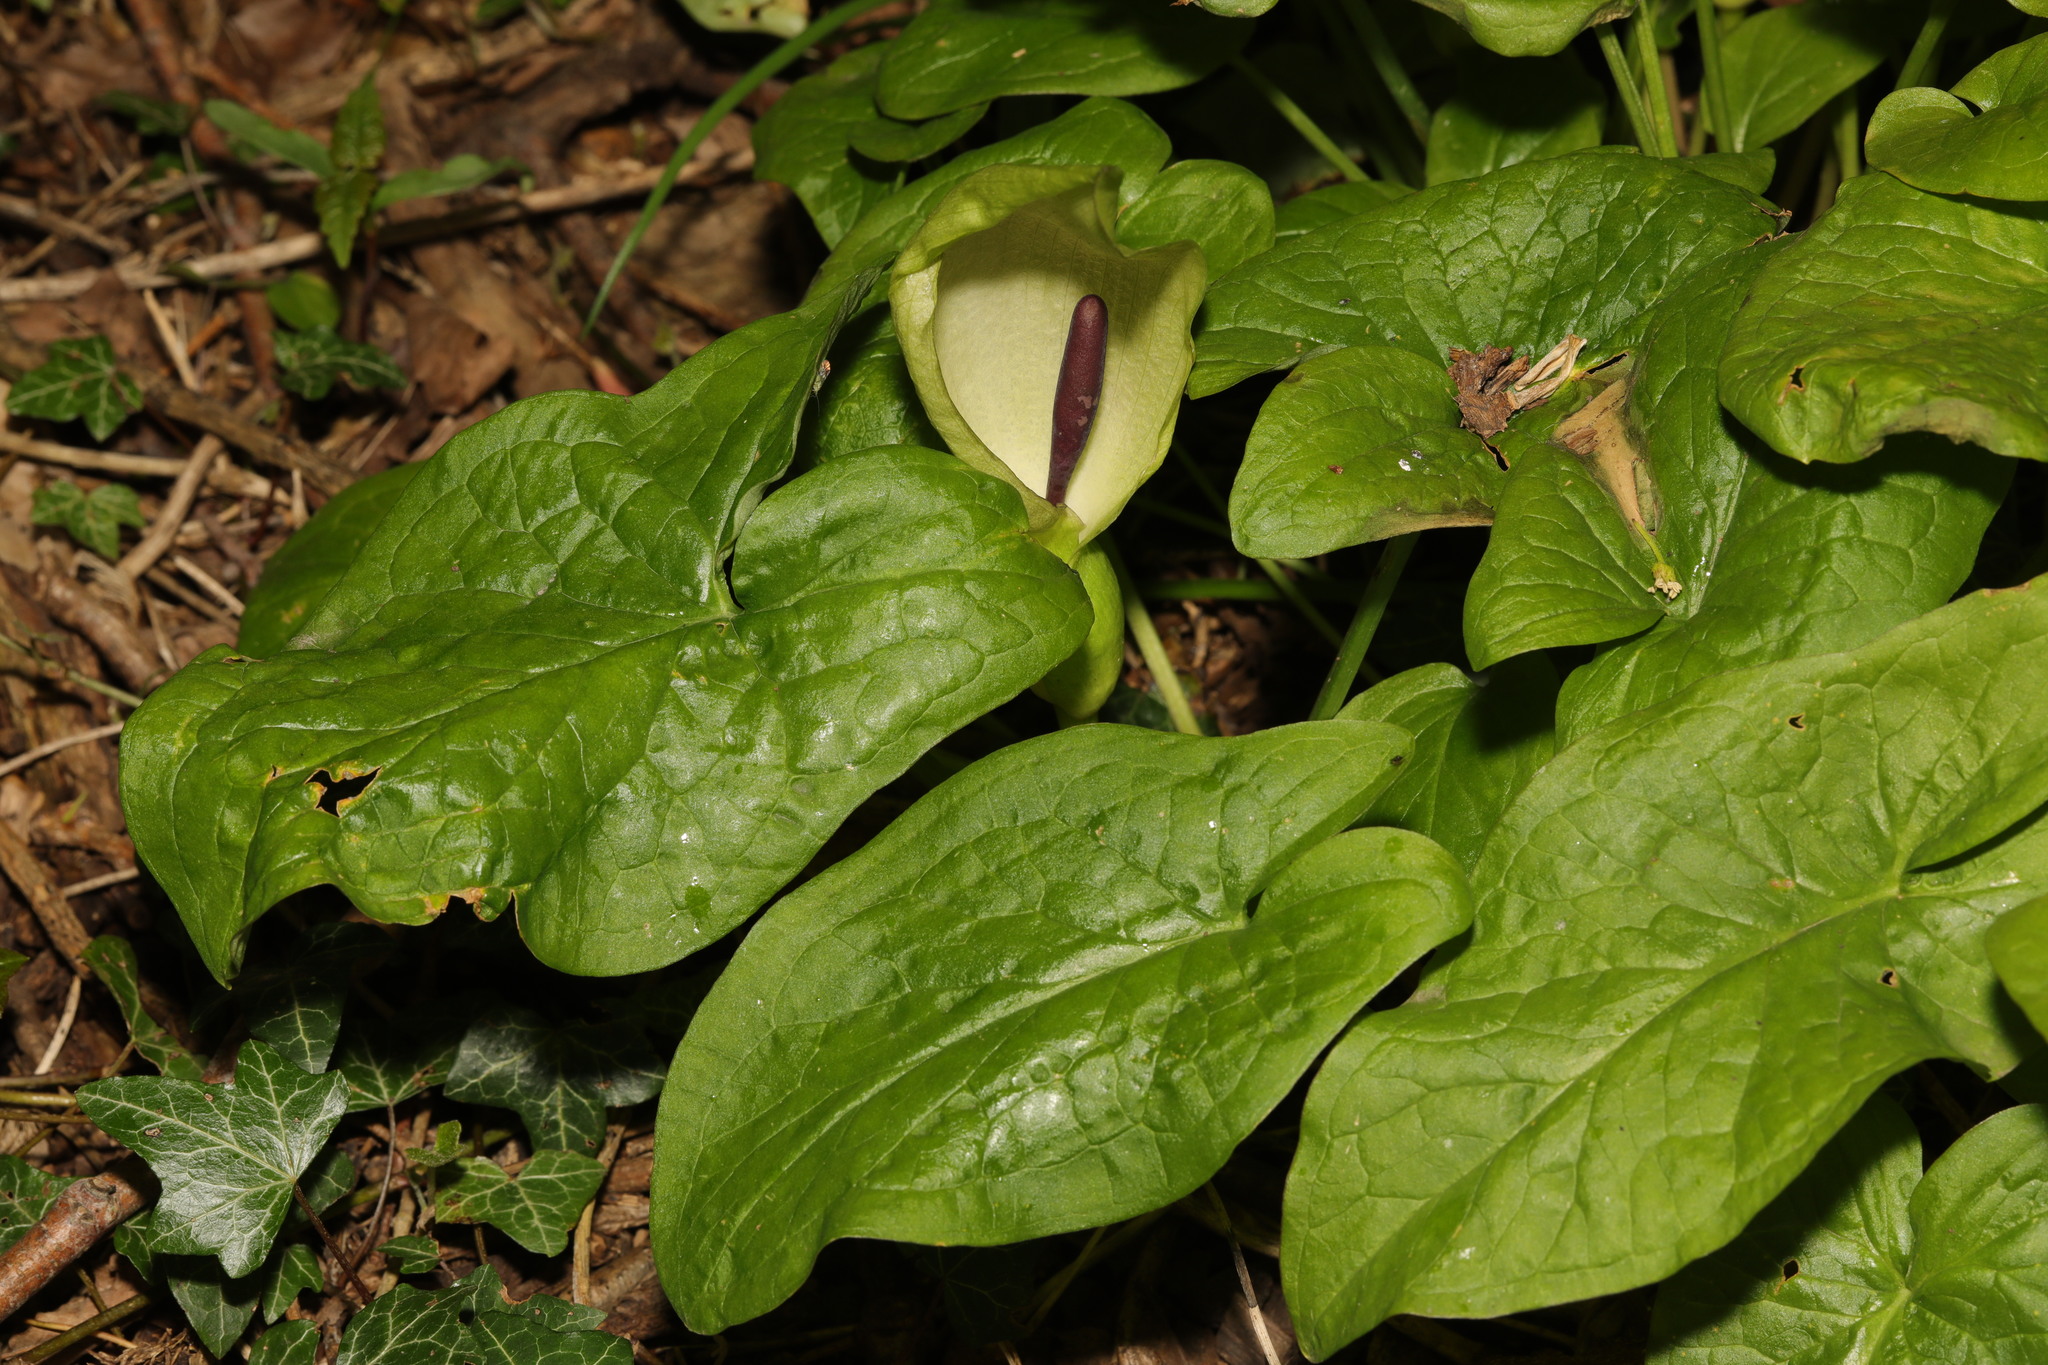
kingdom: Plantae
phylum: Tracheophyta
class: Liliopsida
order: Alismatales
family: Araceae
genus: Arum
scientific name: Arum maculatum
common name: Lords-and-ladies
